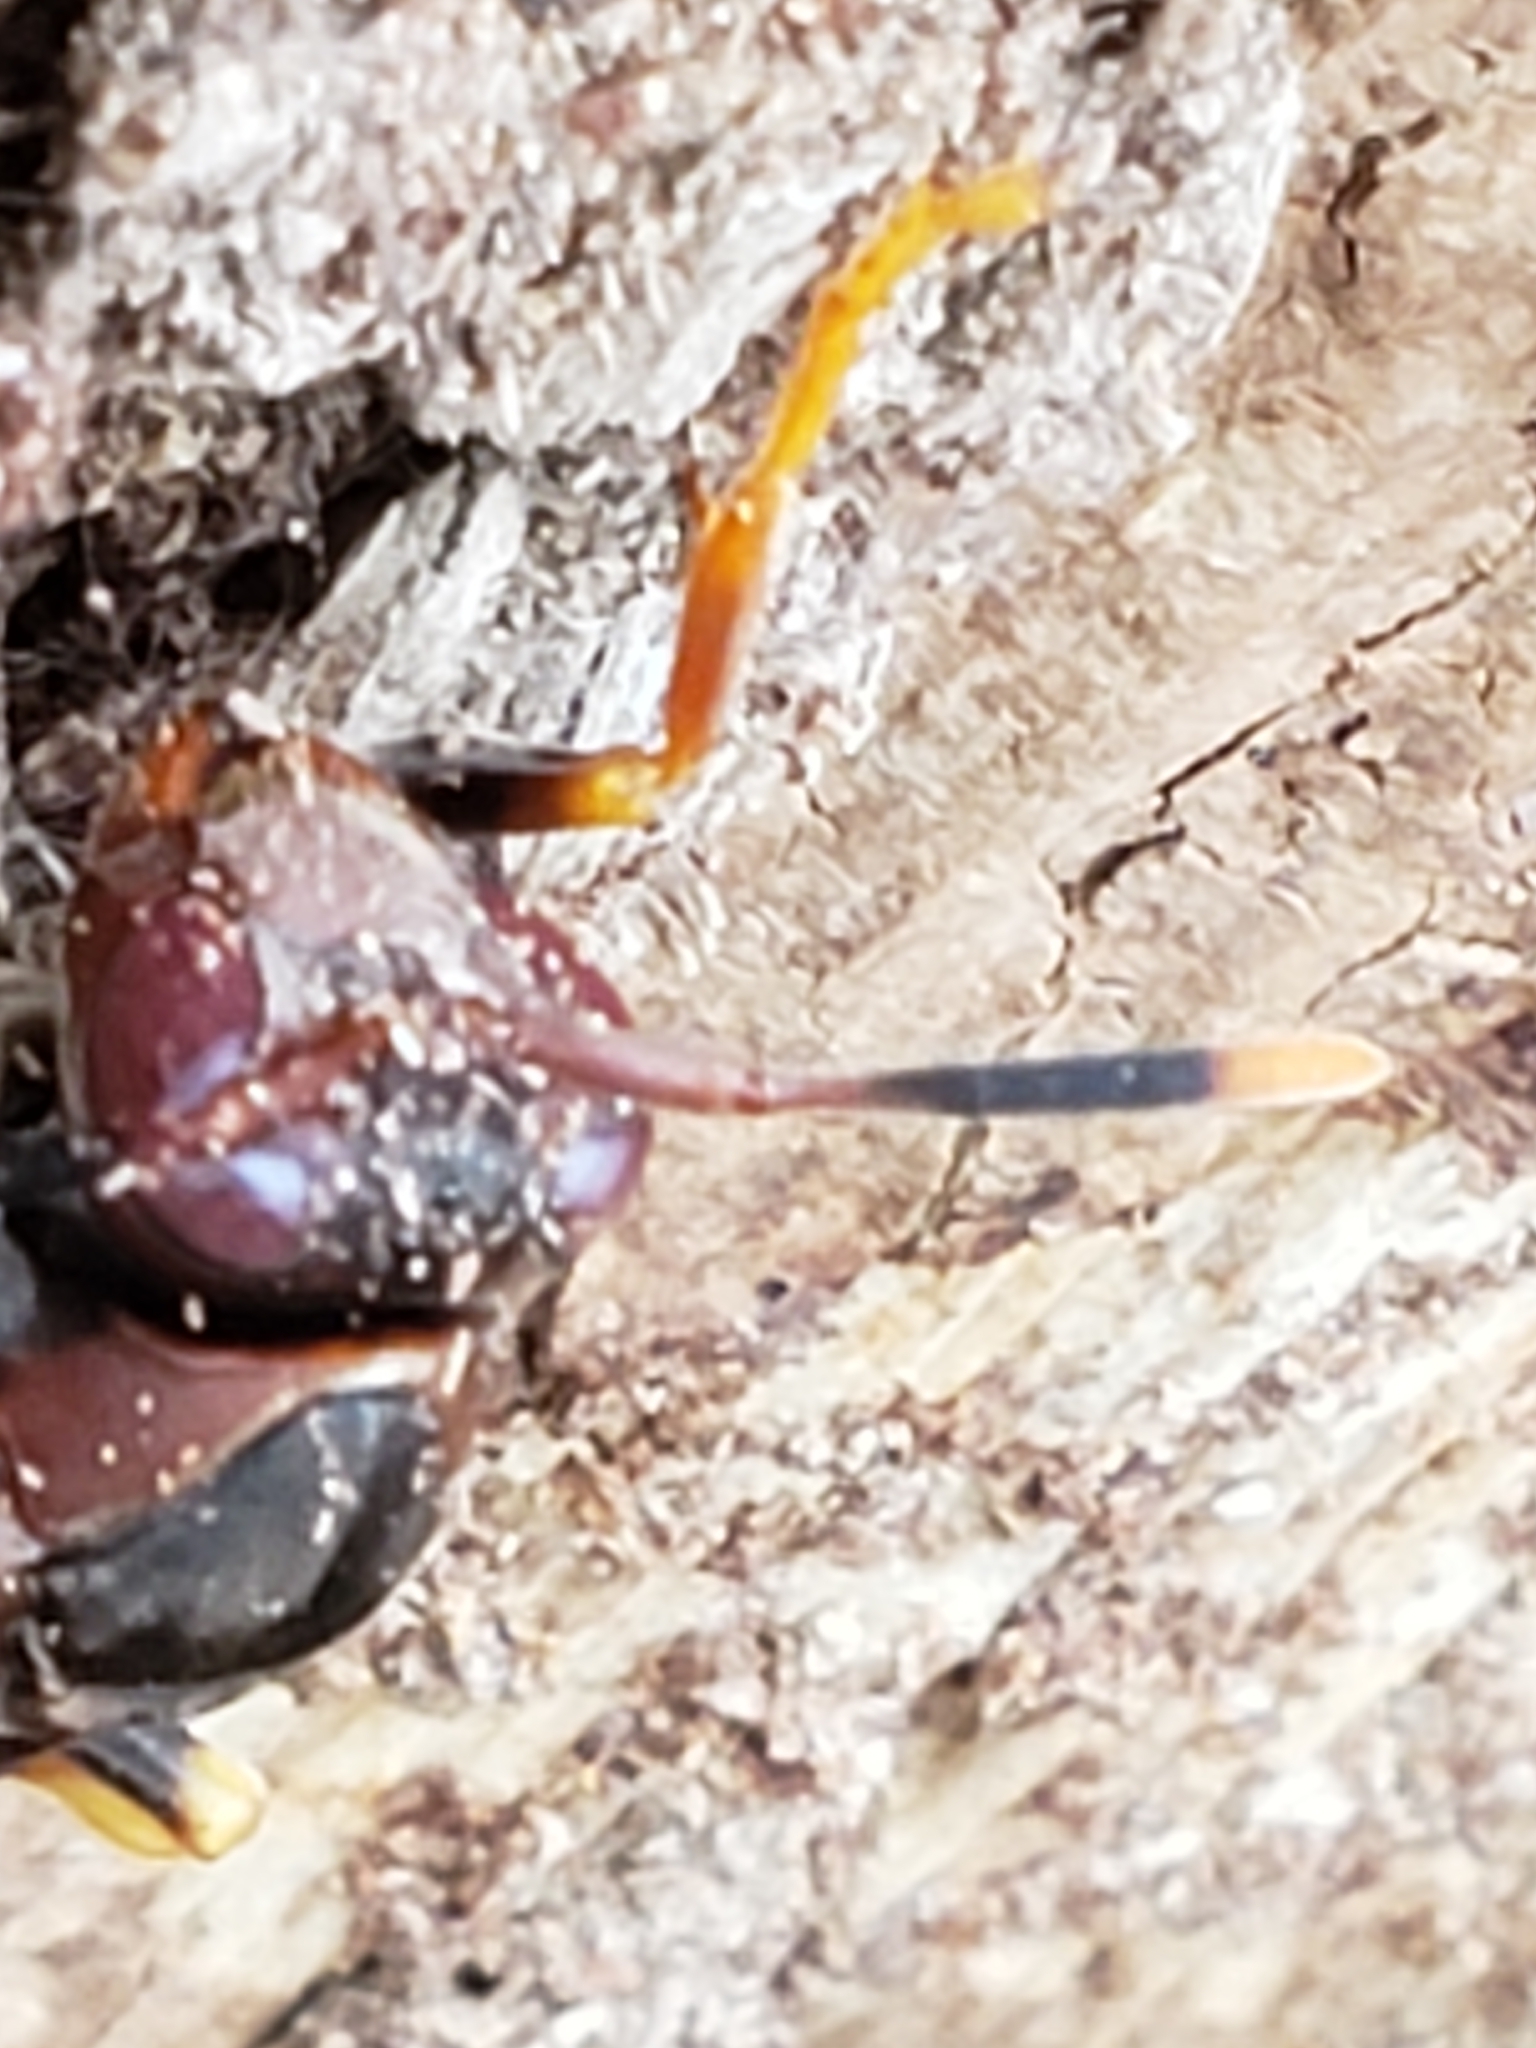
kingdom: Animalia
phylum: Arthropoda
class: Insecta
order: Hymenoptera
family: Eumenidae
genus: Polistes
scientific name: Polistes annularis
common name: Ringed paper wasp
